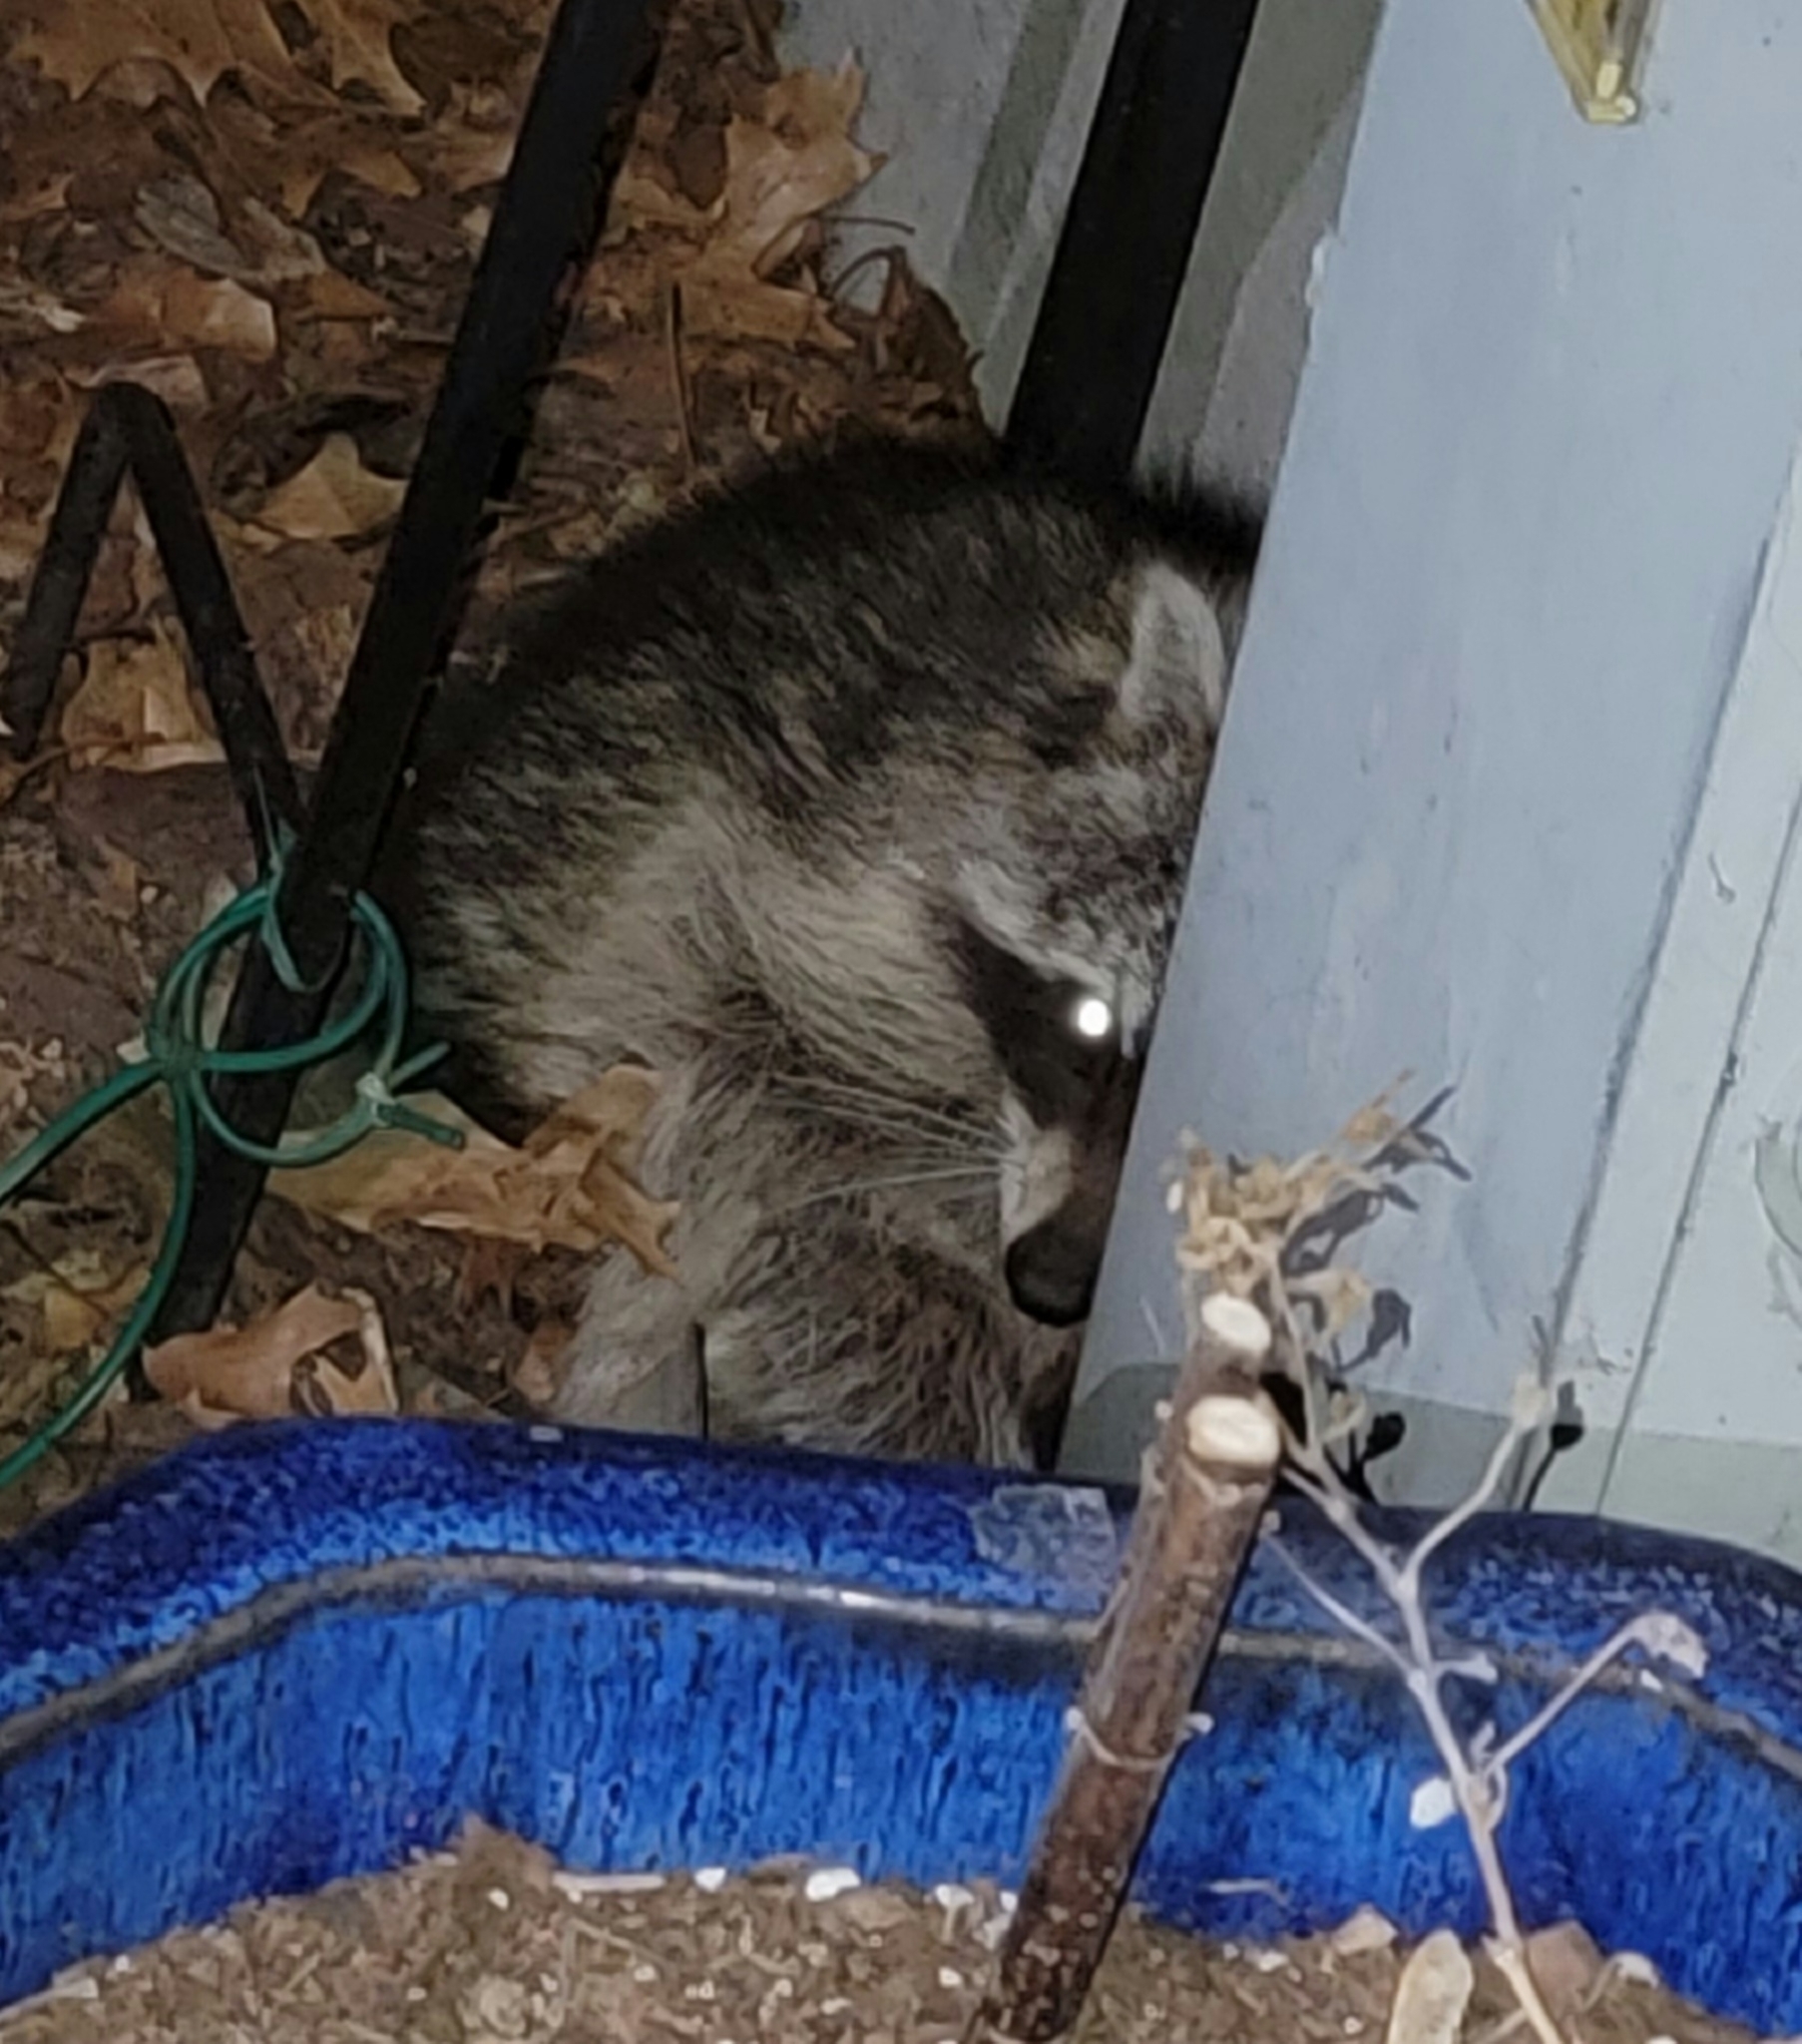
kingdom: Animalia
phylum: Chordata
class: Mammalia
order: Carnivora
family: Procyonidae
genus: Procyon
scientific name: Procyon lotor
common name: Raccoon
